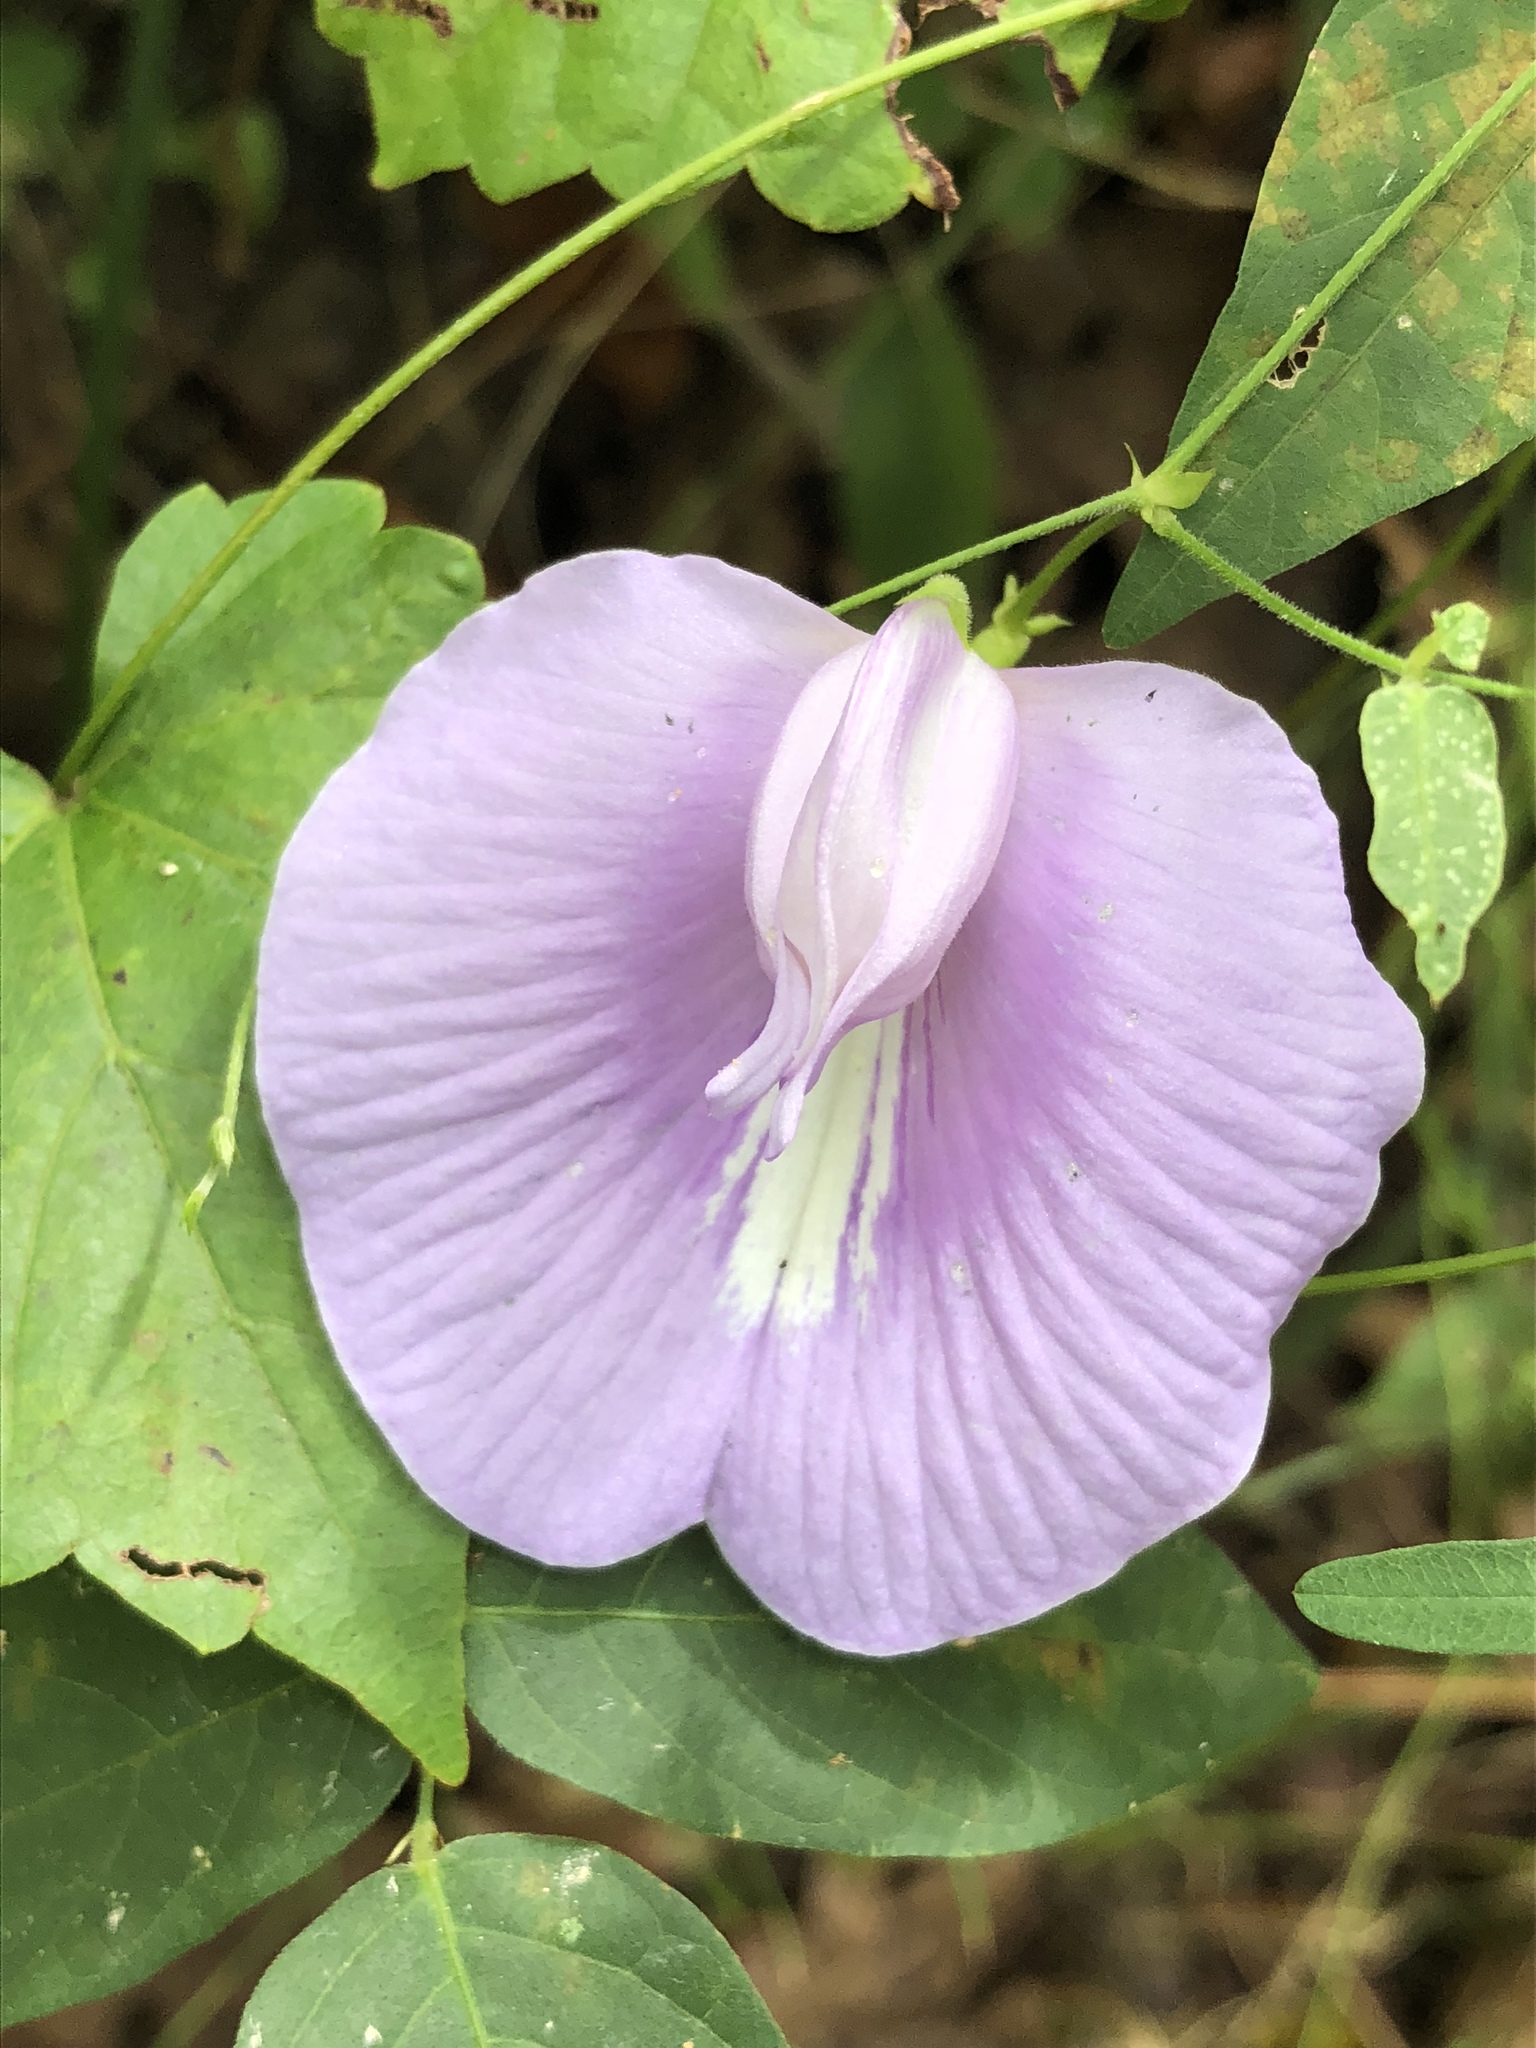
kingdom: Plantae
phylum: Tracheophyta
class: Magnoliopsida
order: Fabales
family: Fabaceae
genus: Centrosema
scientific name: Centrosema virginianum
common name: Butterfly-pea
